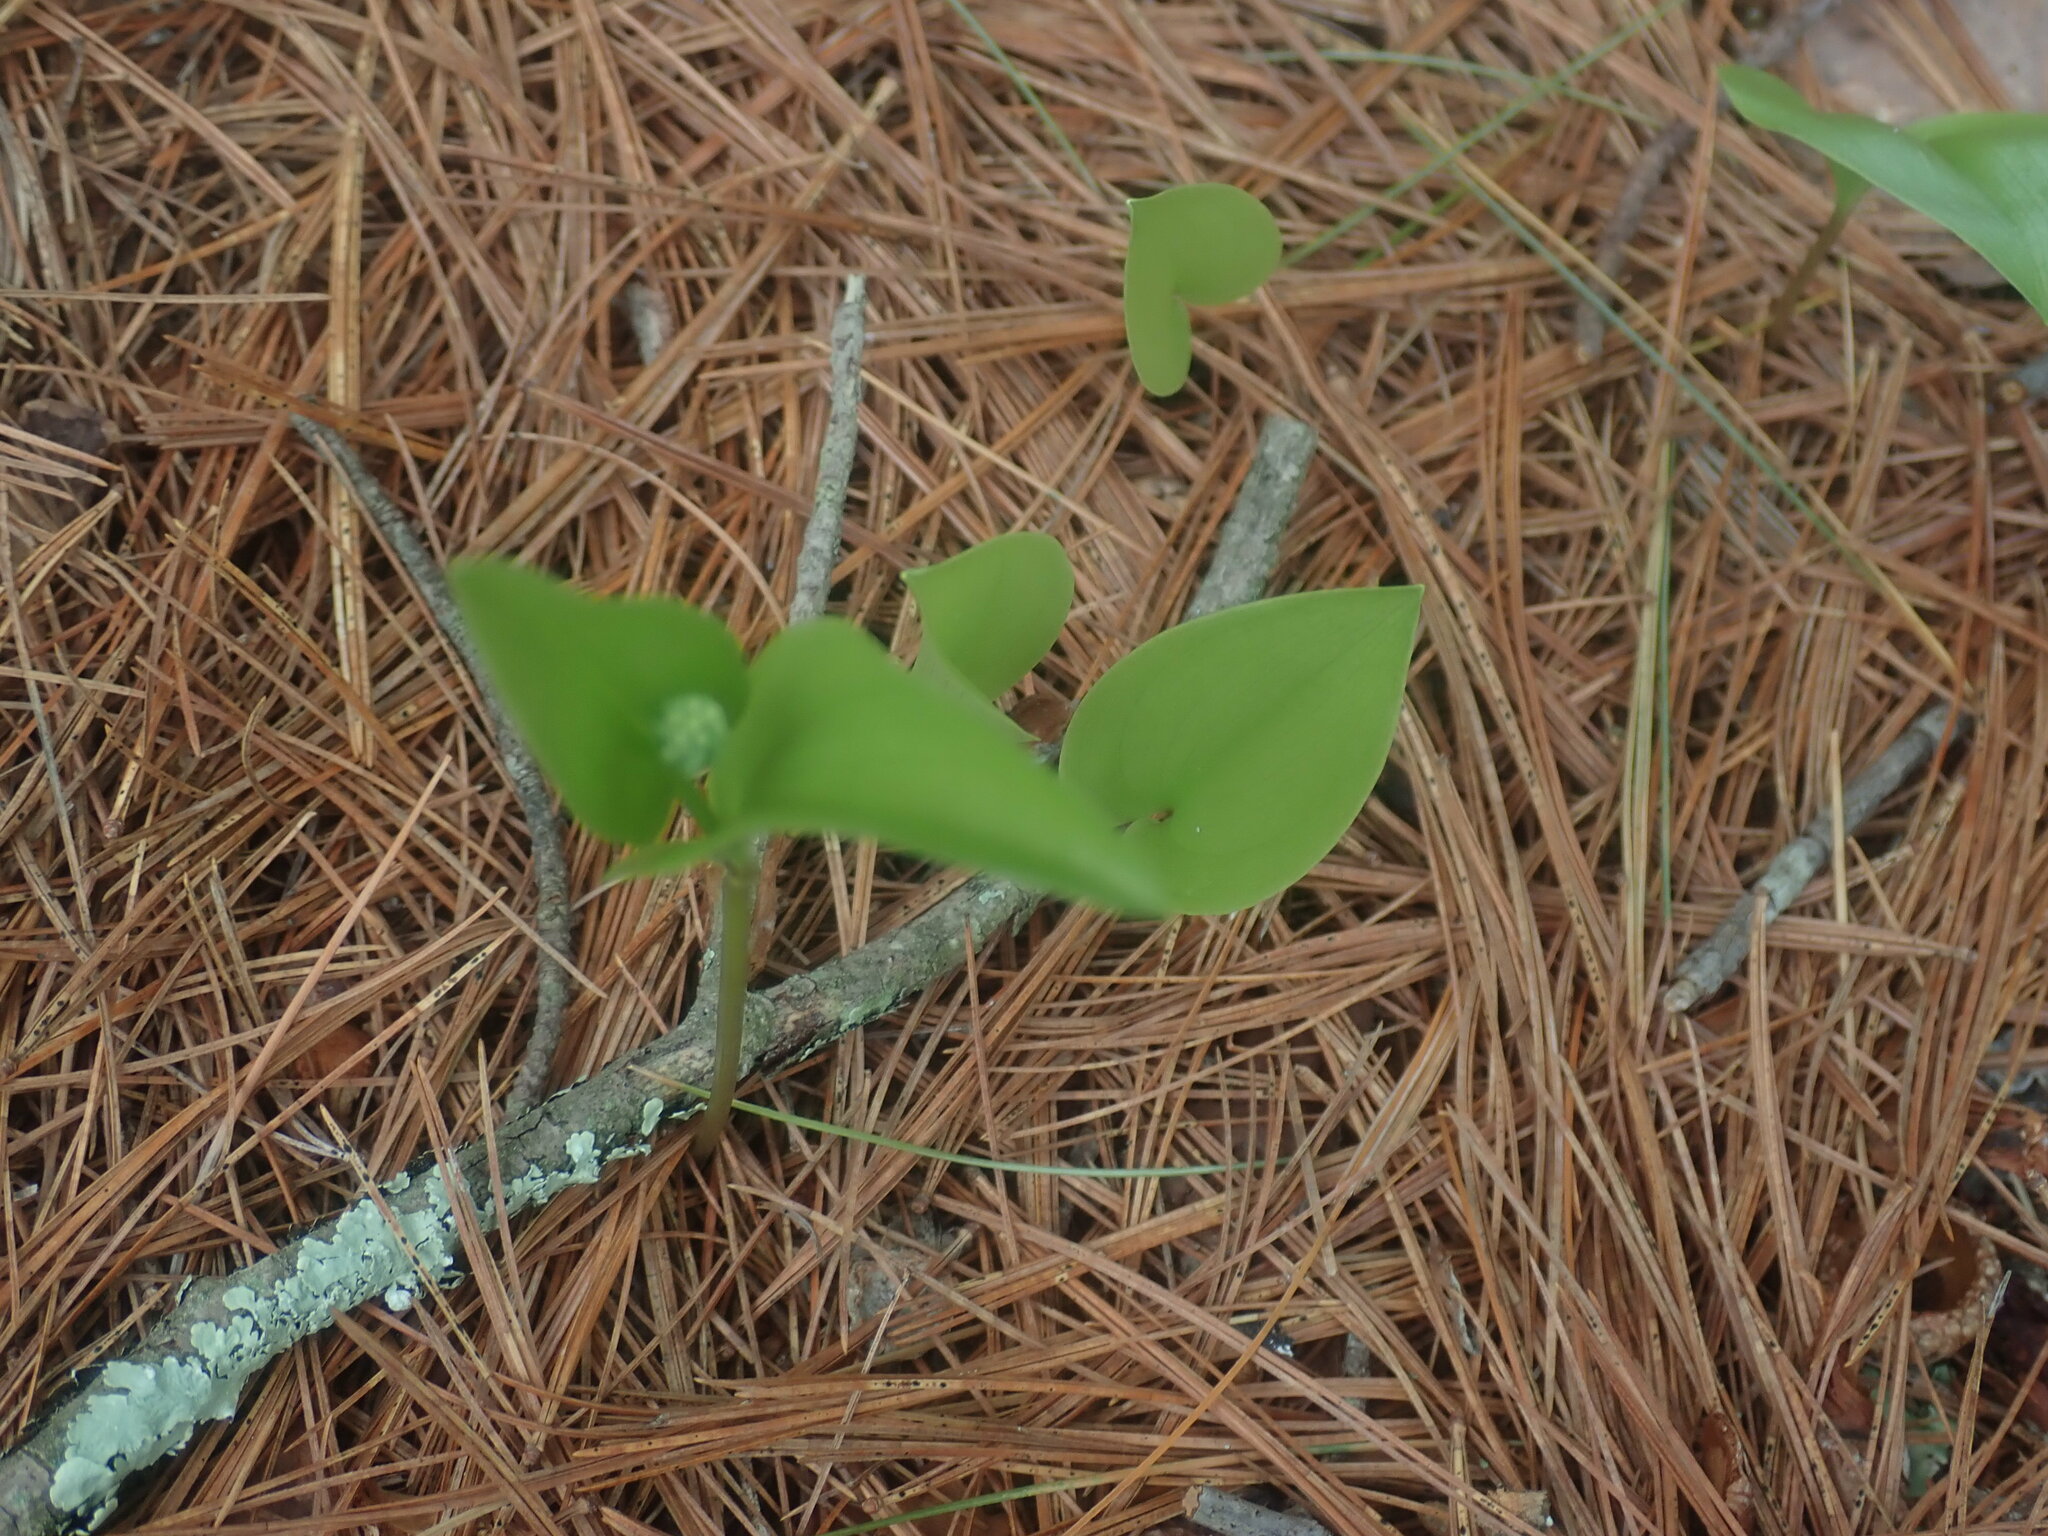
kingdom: Plantae
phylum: Tracheophyta
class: Liliopsida
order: Asparagales
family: Asparagaceae
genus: Maianthemum
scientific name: Maianthemum canadense
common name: False lily-of-the-valley
